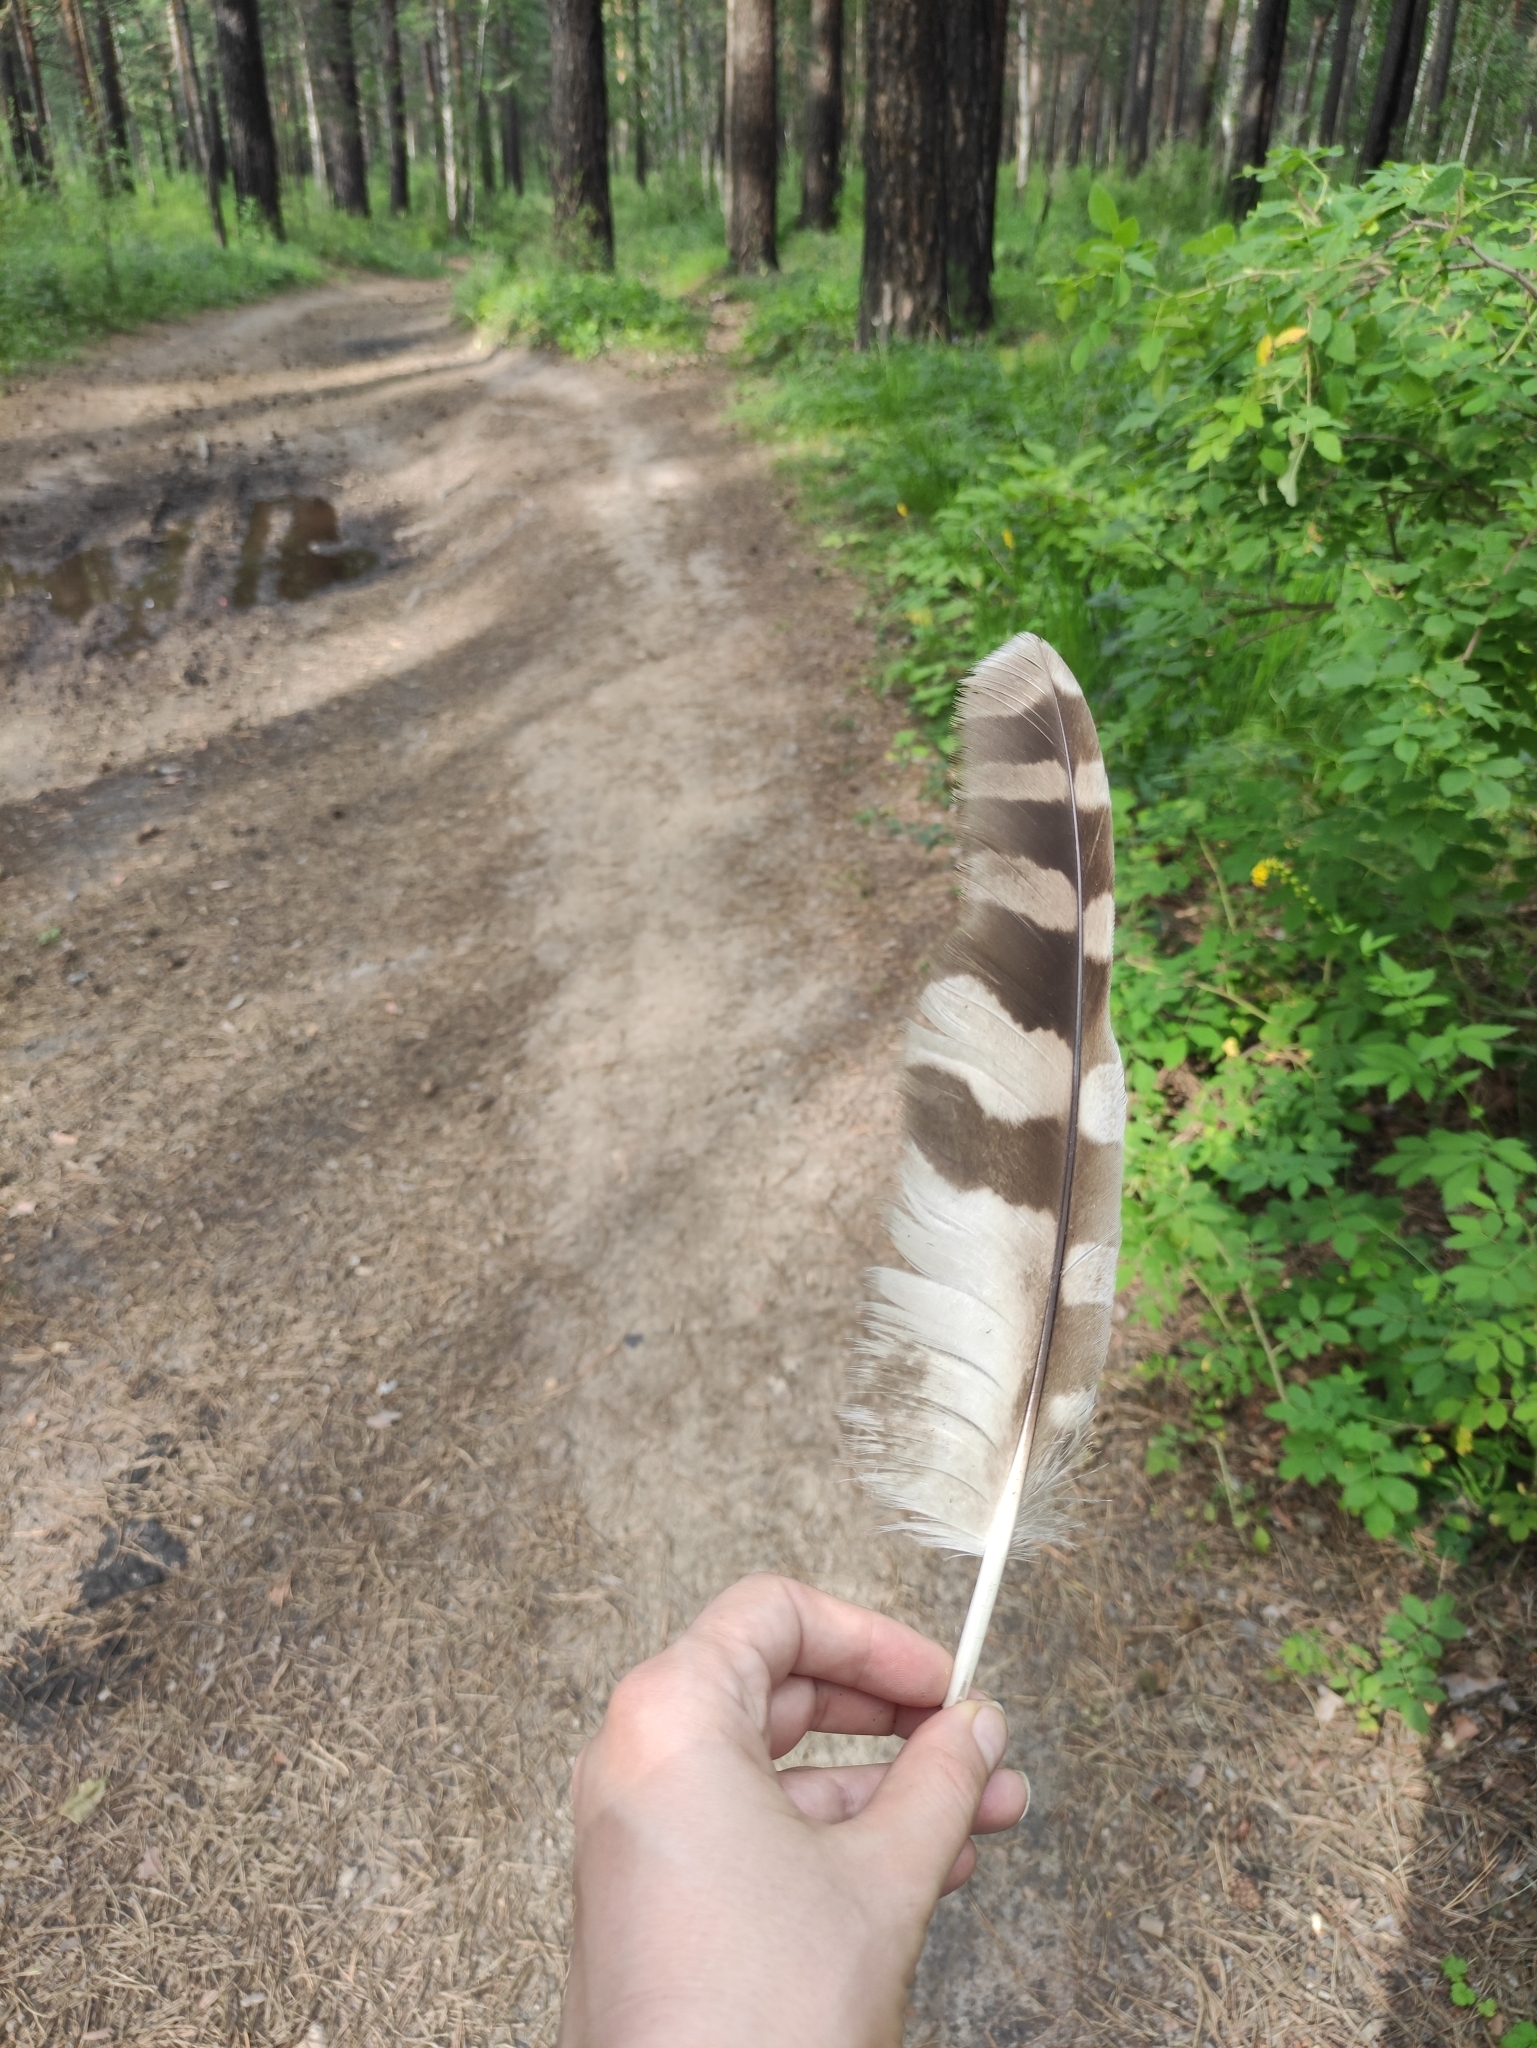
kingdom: Animalia
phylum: Chordata
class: Aves
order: Strigiformes
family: Strigidae
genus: Strix
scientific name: Strix uralensis
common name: Ural owl
